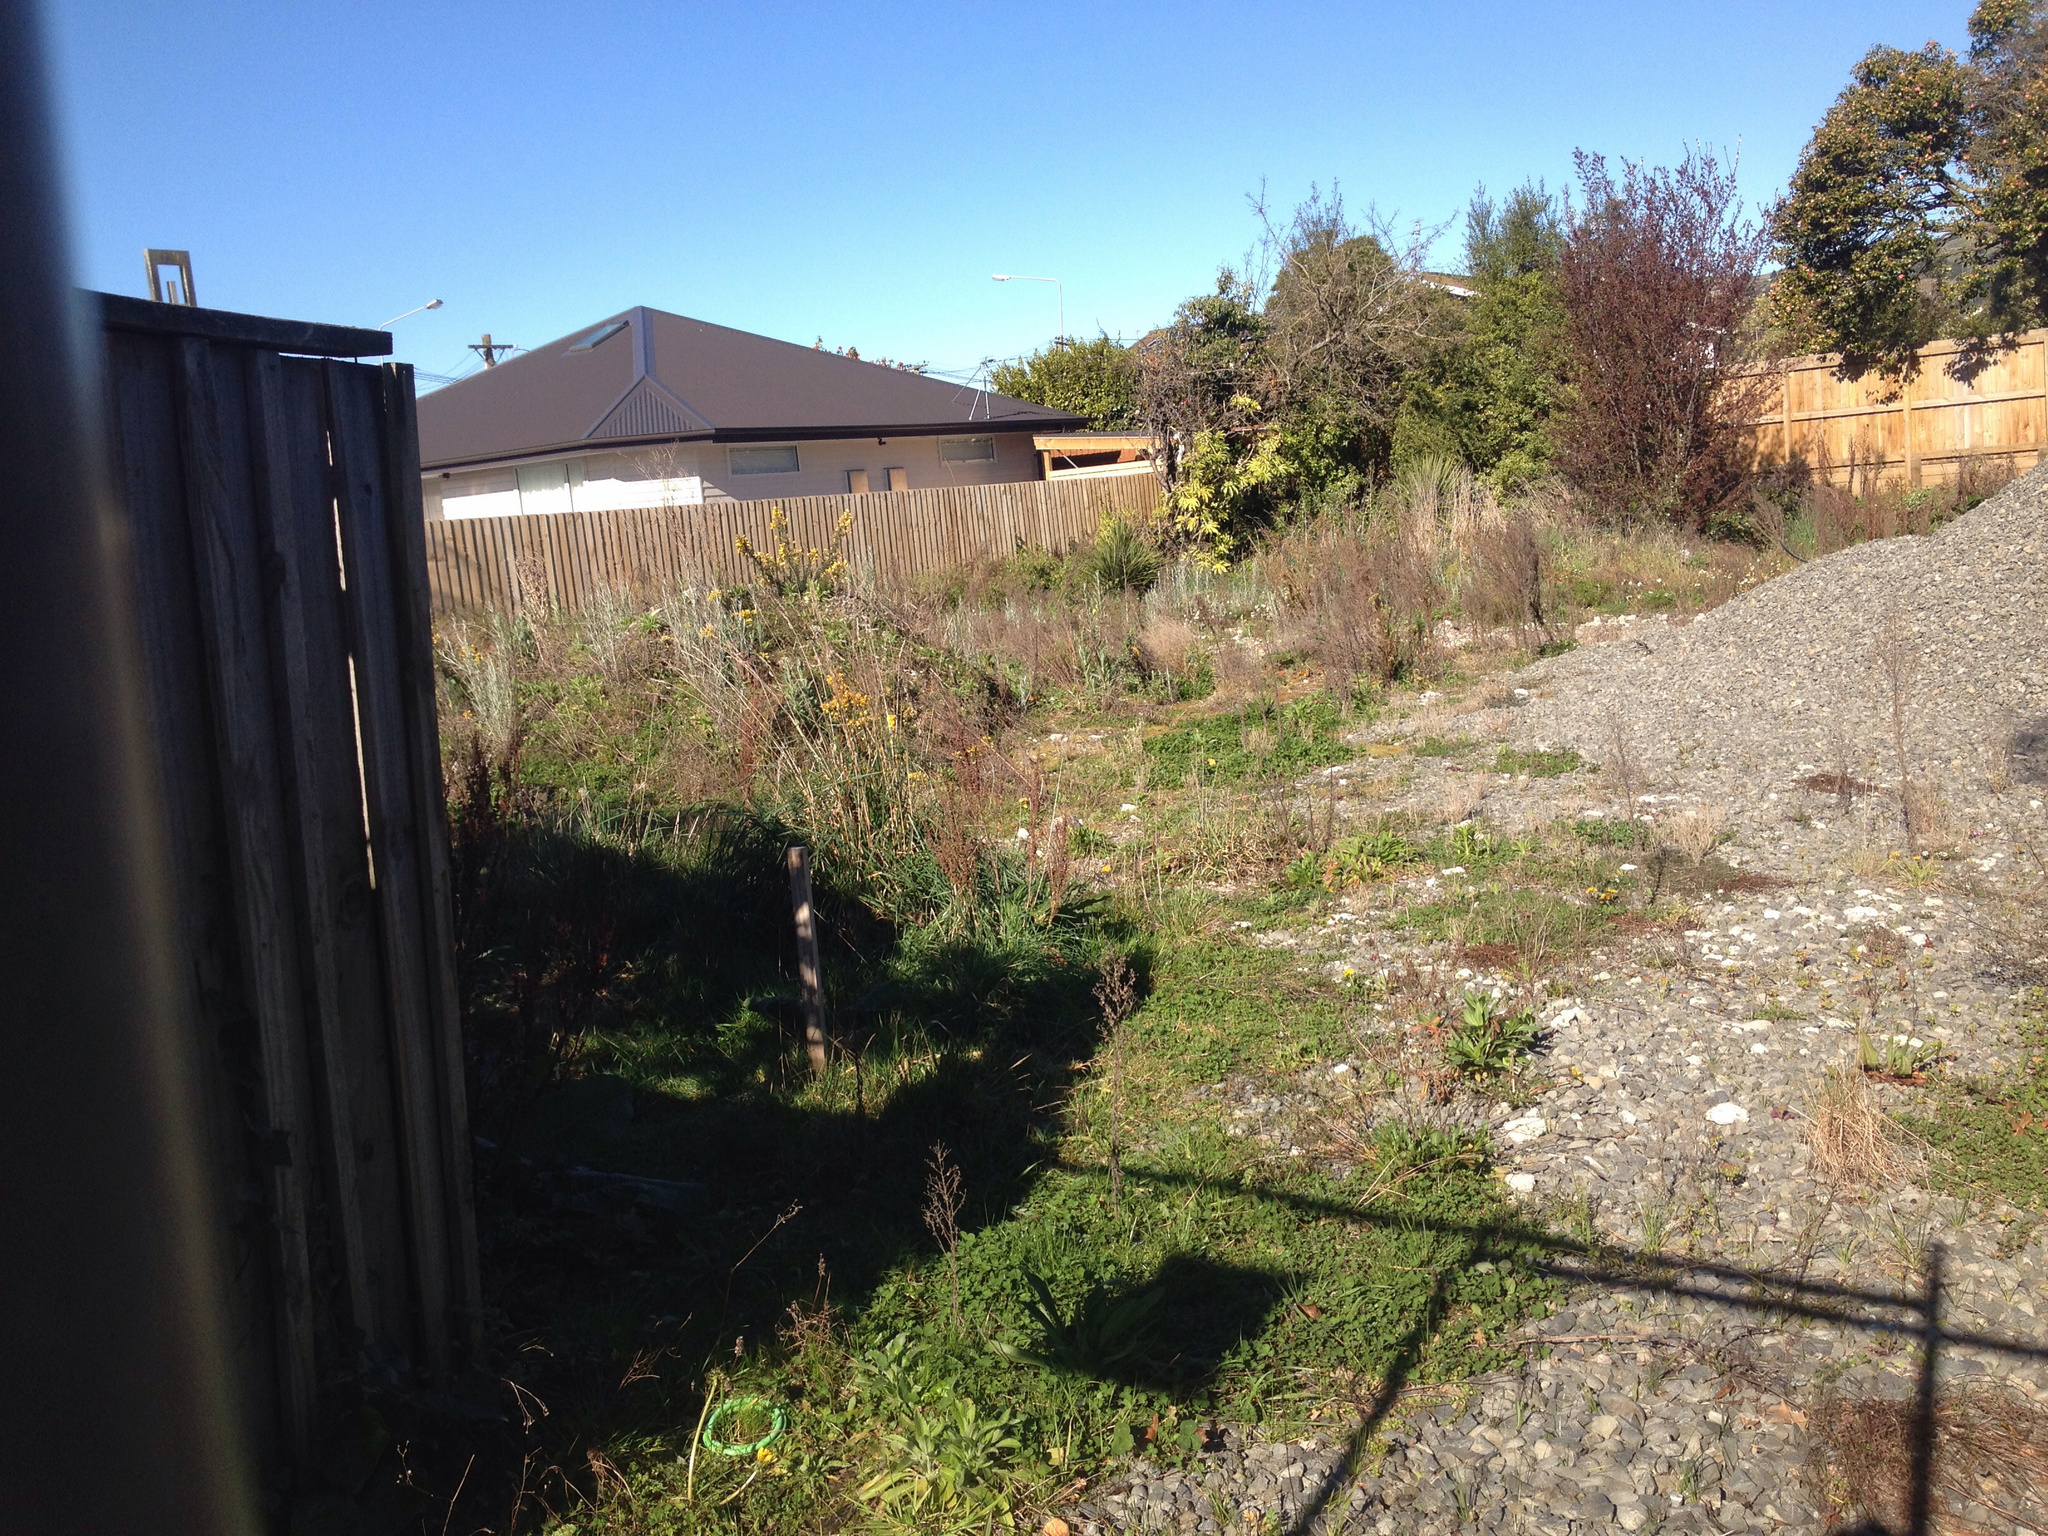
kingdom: Plantae
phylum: Tracheophyta
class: Magnoliopsida
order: Asterales
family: Asteraceae
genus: Senecio
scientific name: Senecio quadridentatus
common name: Cotton fireweed
